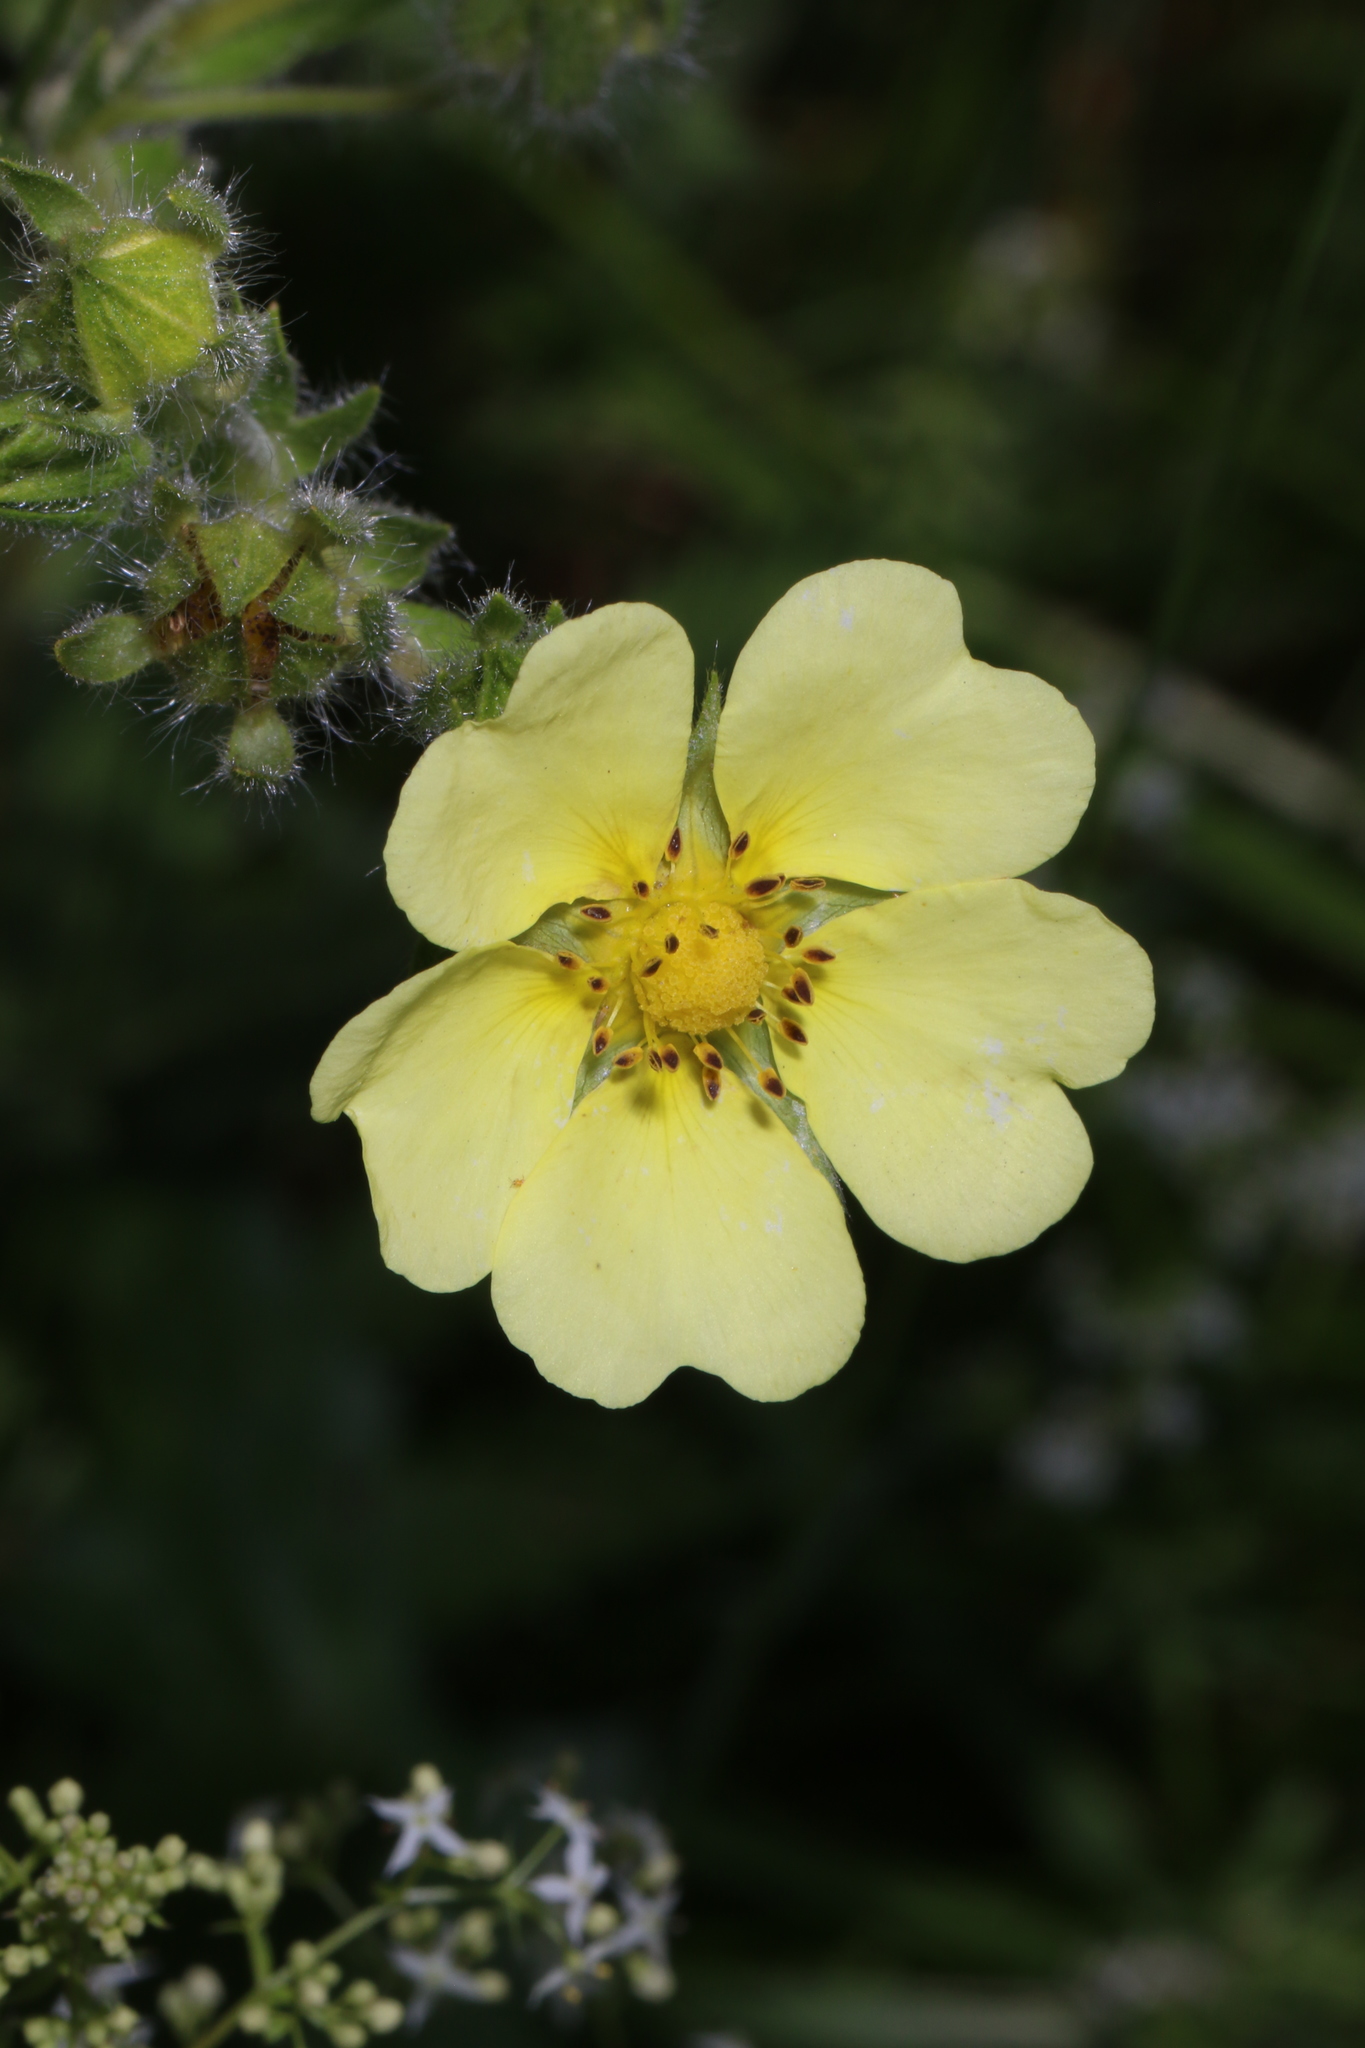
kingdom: Plantae
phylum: Tracheophyta
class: Magnoliopsida
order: Rosales
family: Rosaceae
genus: Potentilla
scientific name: Potentilla recta
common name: Sulphur cinquefoil
